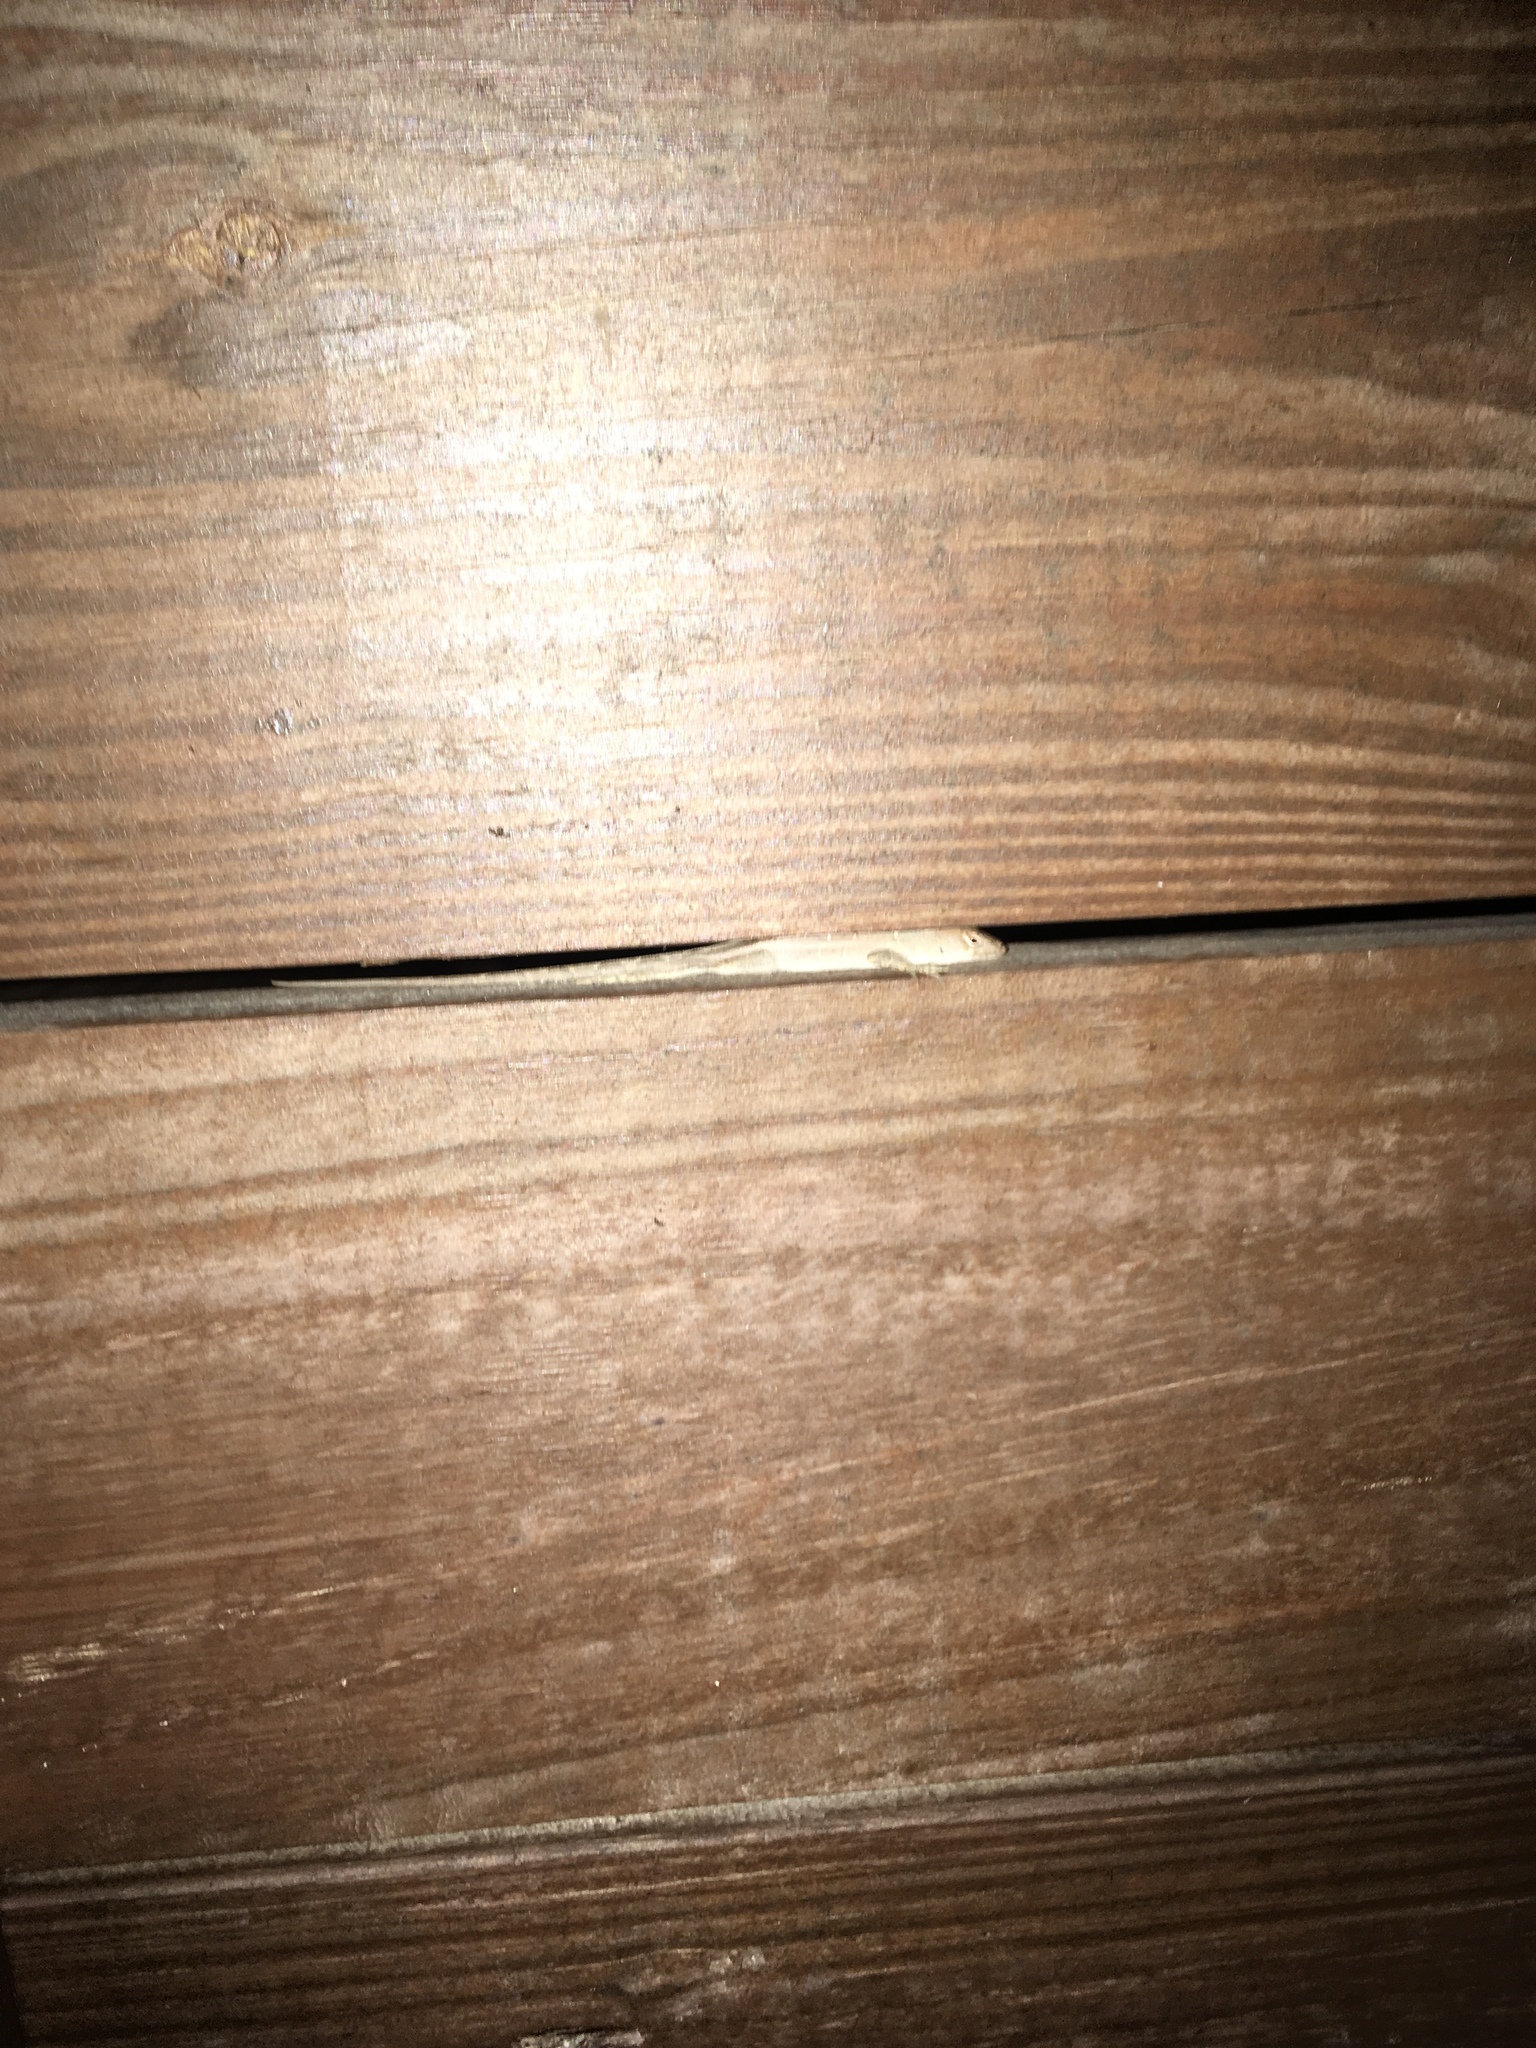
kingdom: Animalia
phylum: Chordata
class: Squamata
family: Dactyloidae
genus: Anolis
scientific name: Anolis sagrei
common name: Brown anole
